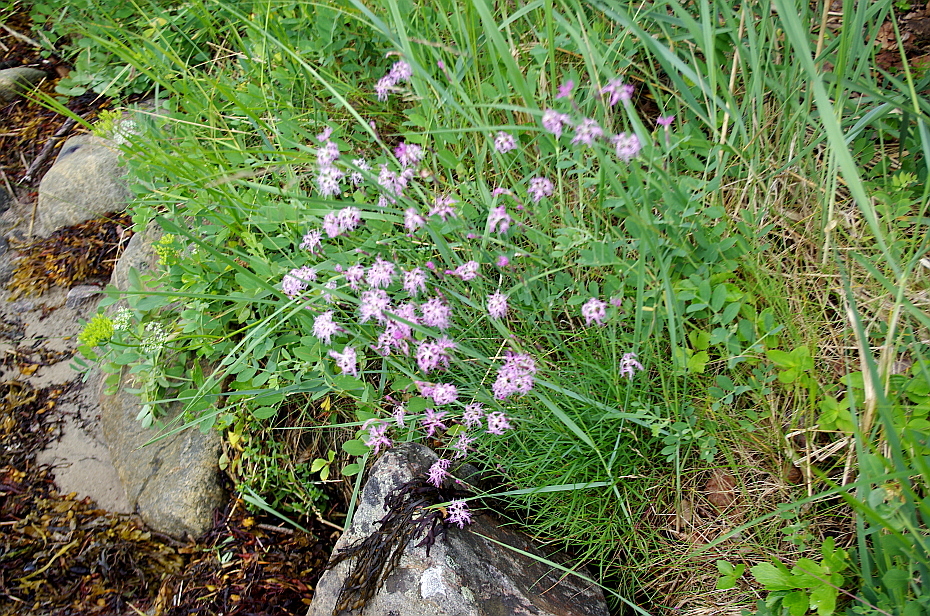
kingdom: Plantae
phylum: Tracheophyta
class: Magnoliopsida
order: Caryophyllales
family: Caryophyllaceae
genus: Dianthus
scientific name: Dianthus superbus
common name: Fringed pink
